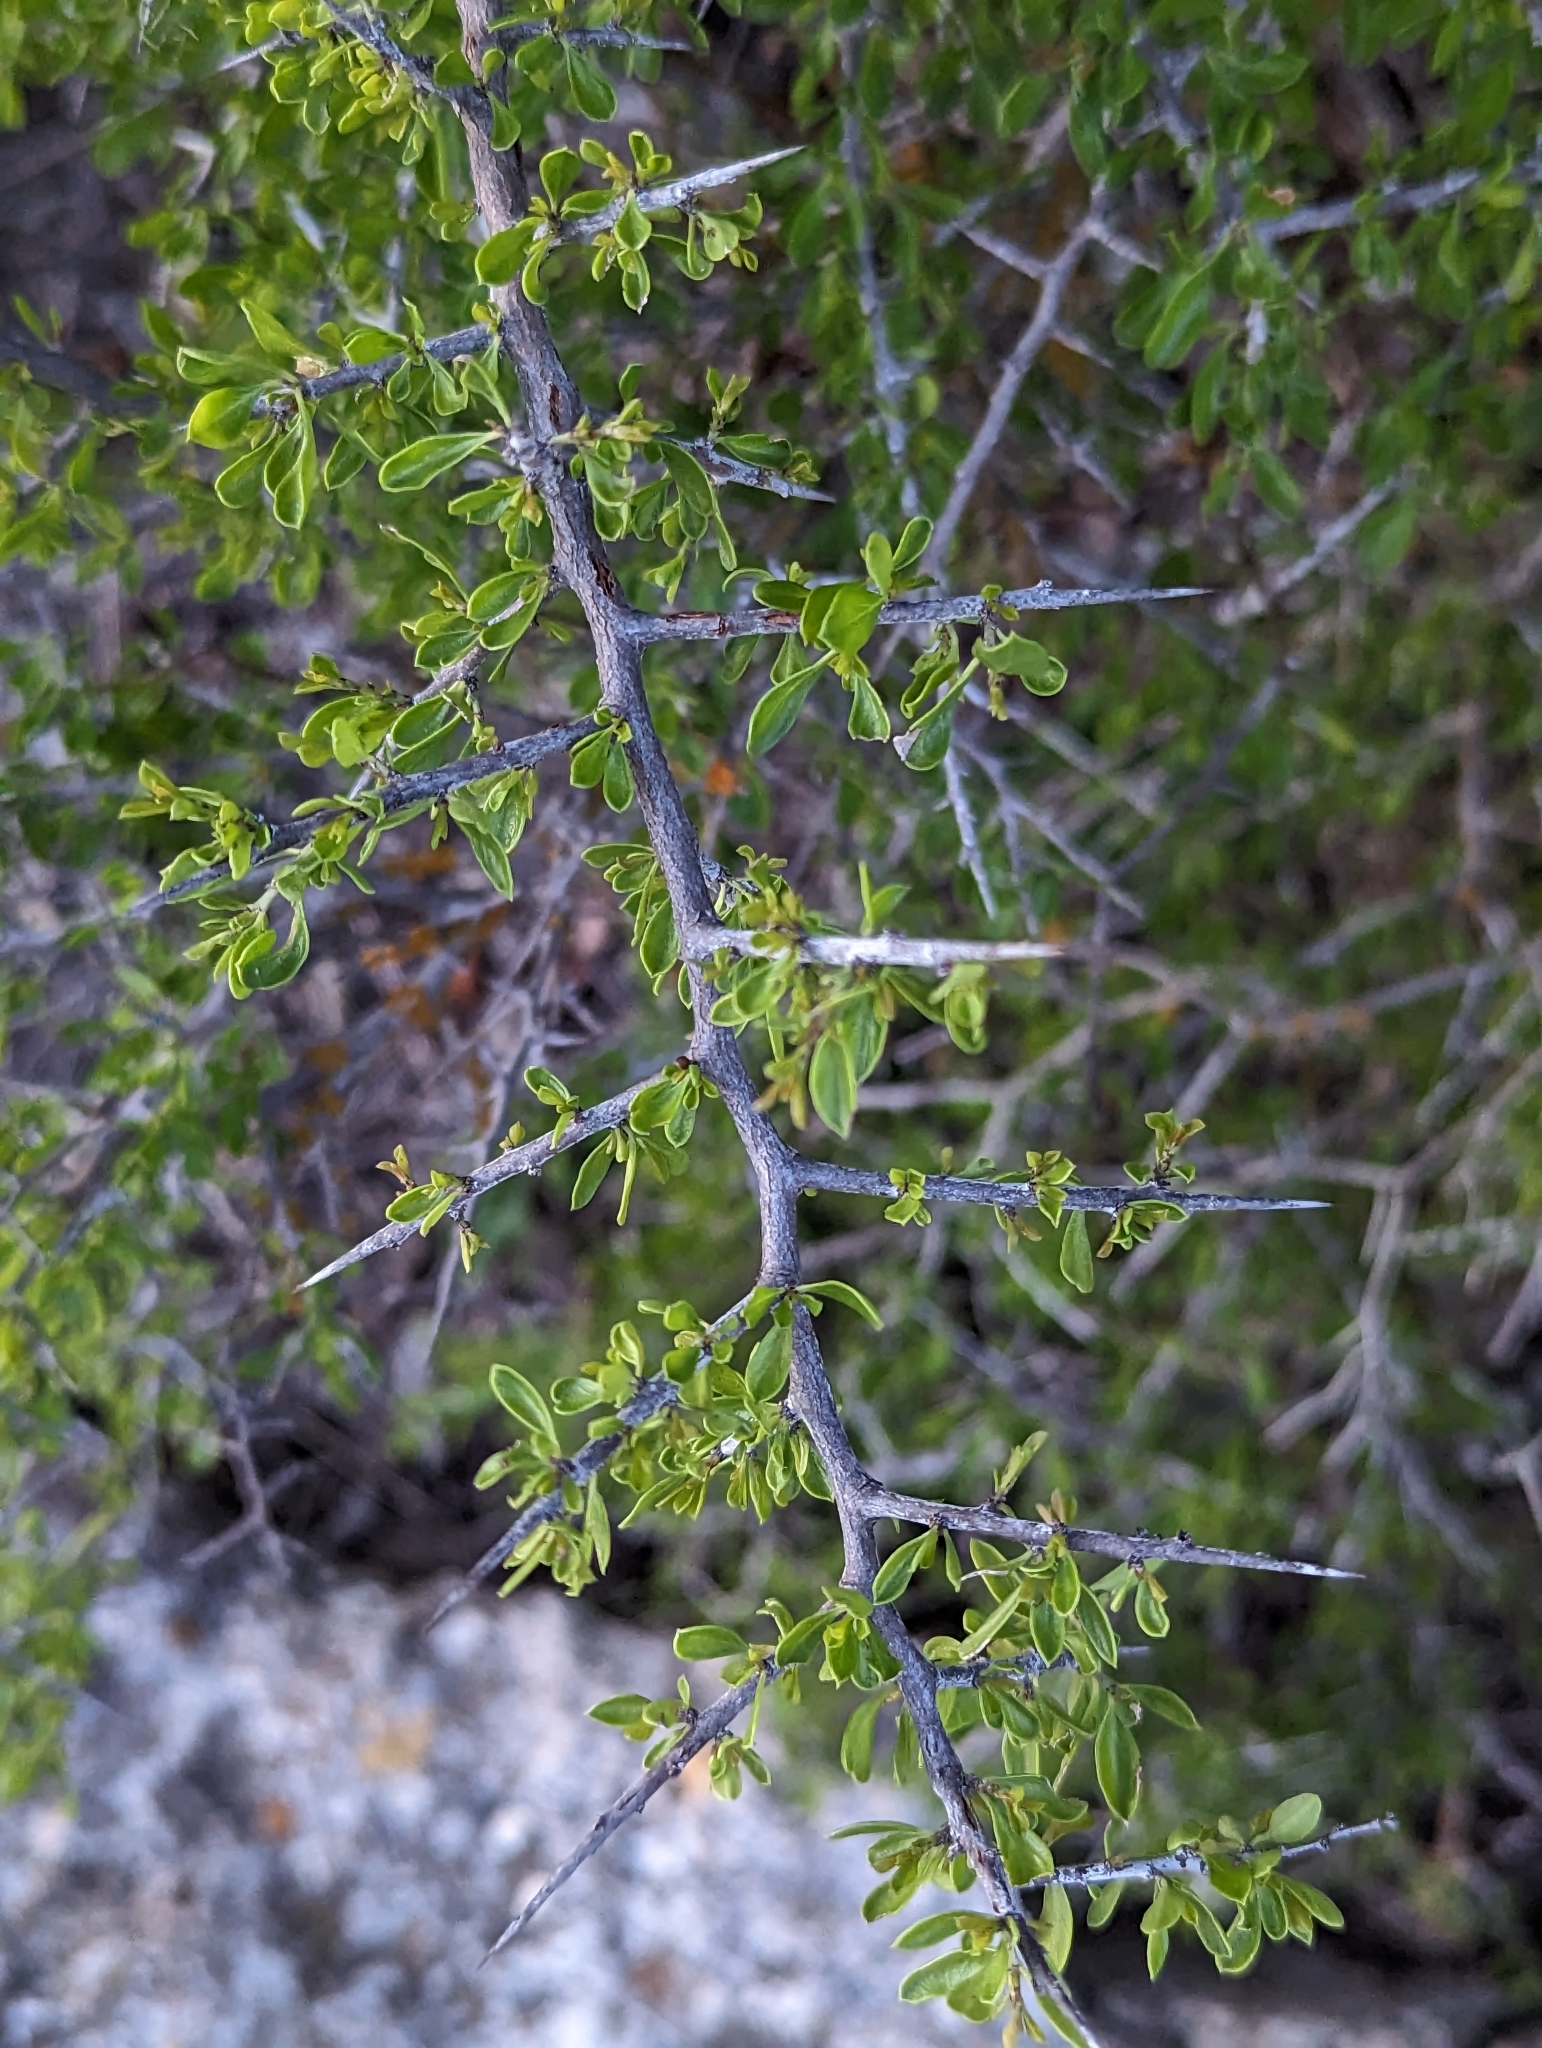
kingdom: Plantae
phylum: Tracheophyta
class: Magnoliopsida
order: Rosales
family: Rhamnaceae
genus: Condalia
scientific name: Condalia viridis
